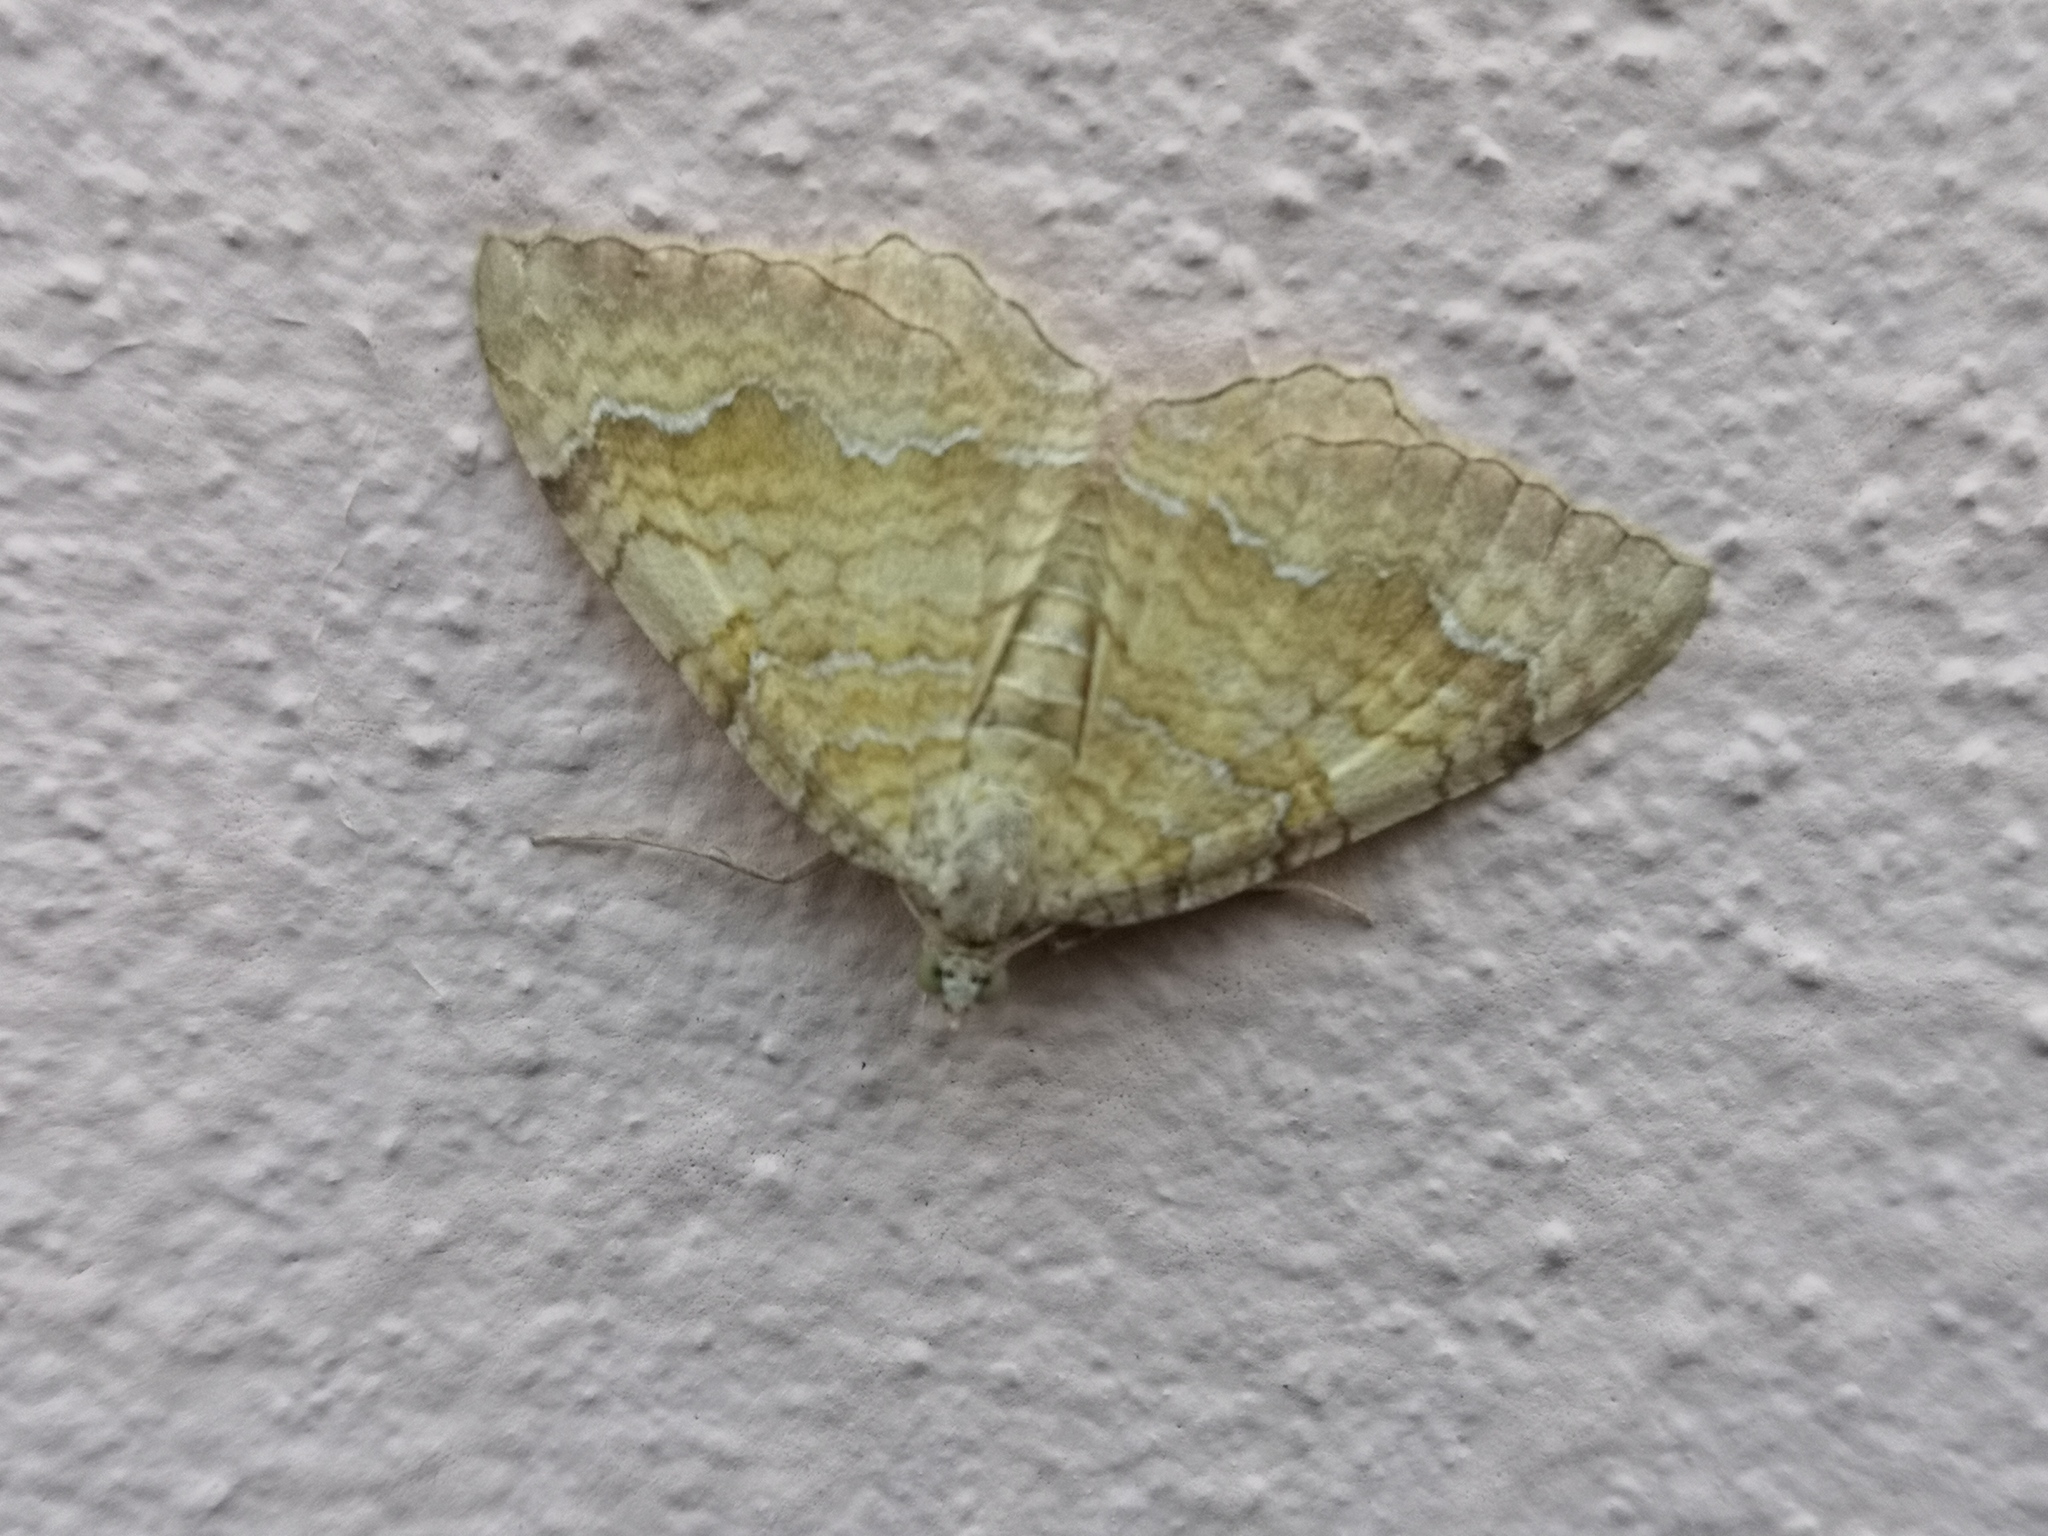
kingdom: Animalia
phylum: Arthropoda
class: Insecta
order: Lepidoptera
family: Geometridae
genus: Camptogramma
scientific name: Camptogramma bilineata
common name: Yellow shell
